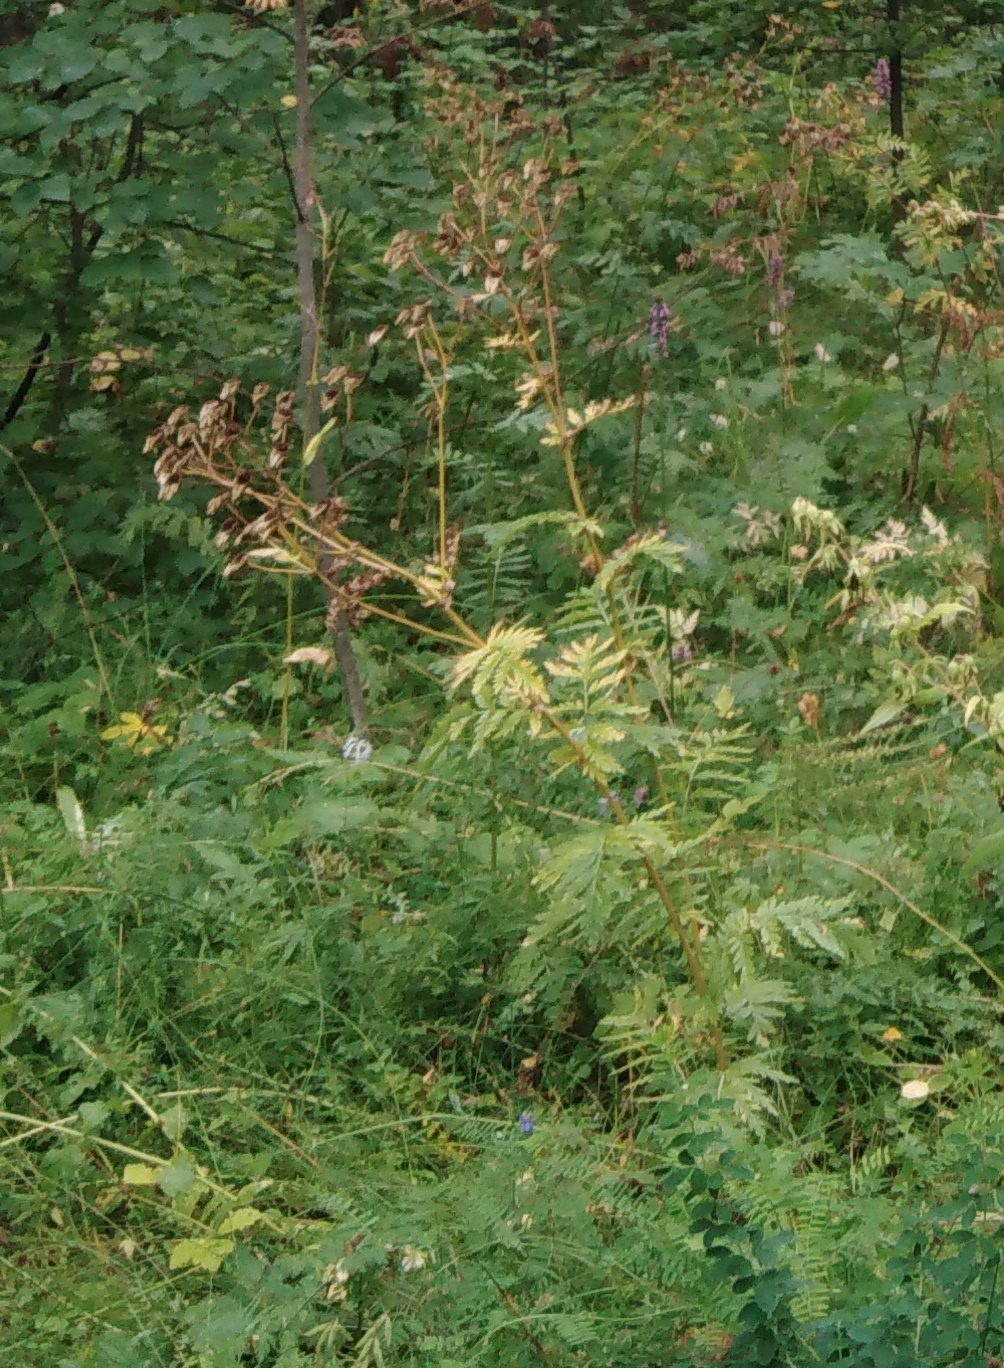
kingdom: Plantae
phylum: Tracheophyta
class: Magnoliopsida
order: Asterales
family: Asteraceae
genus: Tanacetum
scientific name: Tanacetum corymbosum
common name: Scentless feverfew
